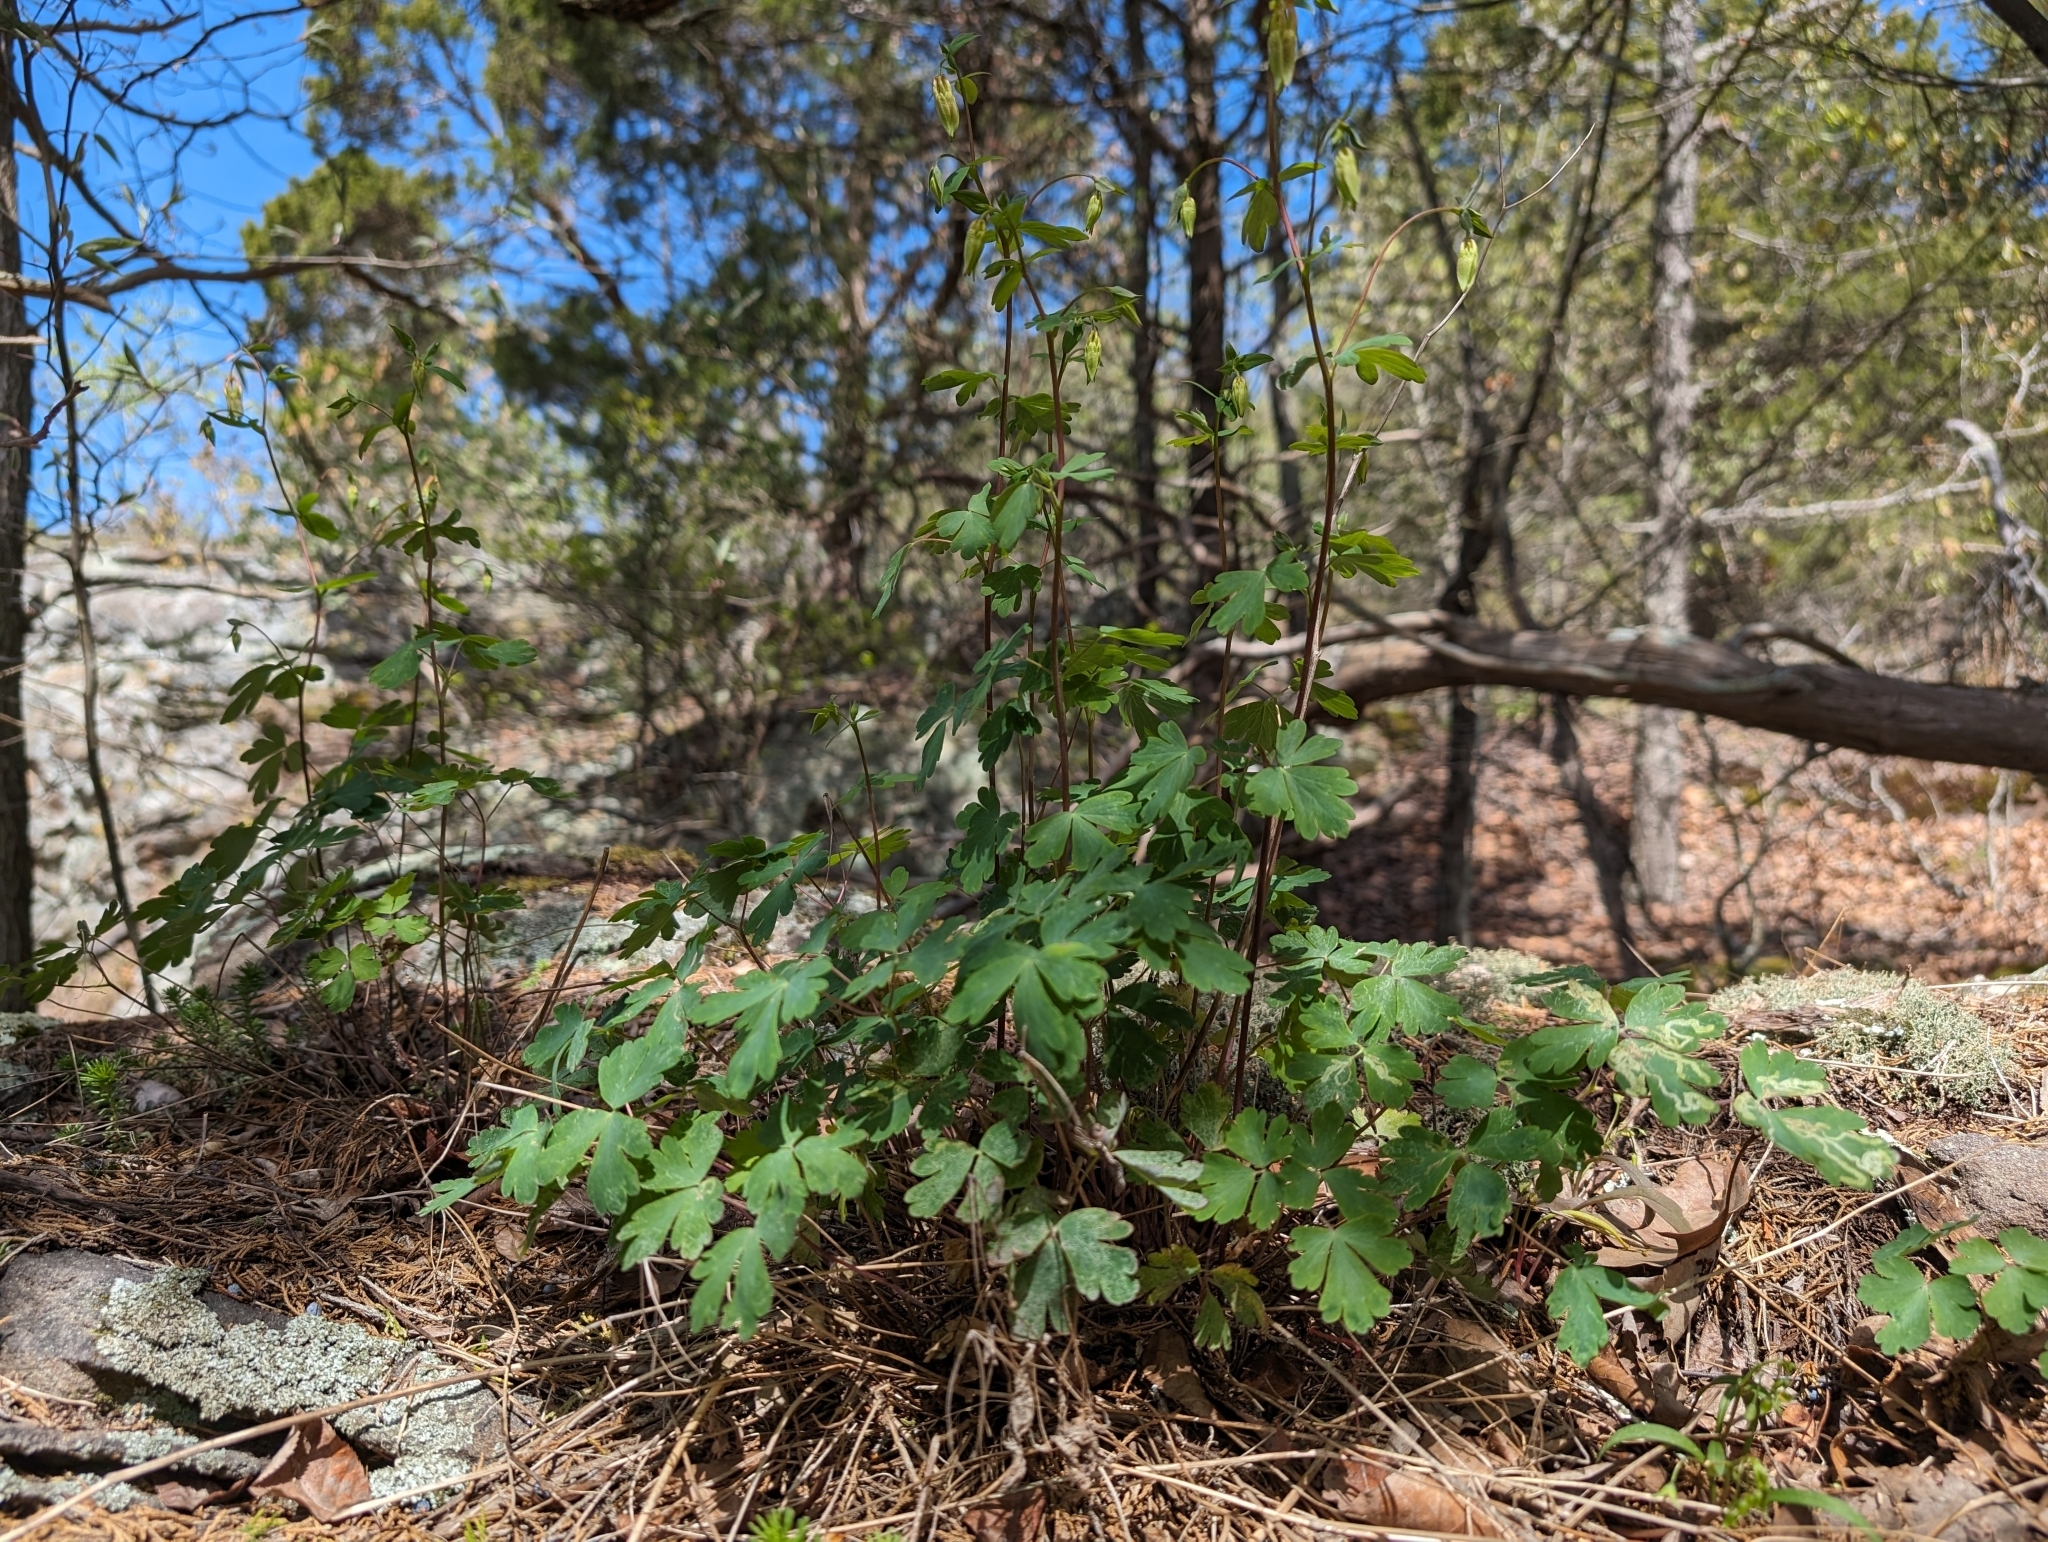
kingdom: Plantae
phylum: Tracheophyta
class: Magnoliopsida
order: Ranunculales
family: Ranunculaceae
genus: Aquilegia
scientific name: Aquilegia canadensis
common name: American columbine
